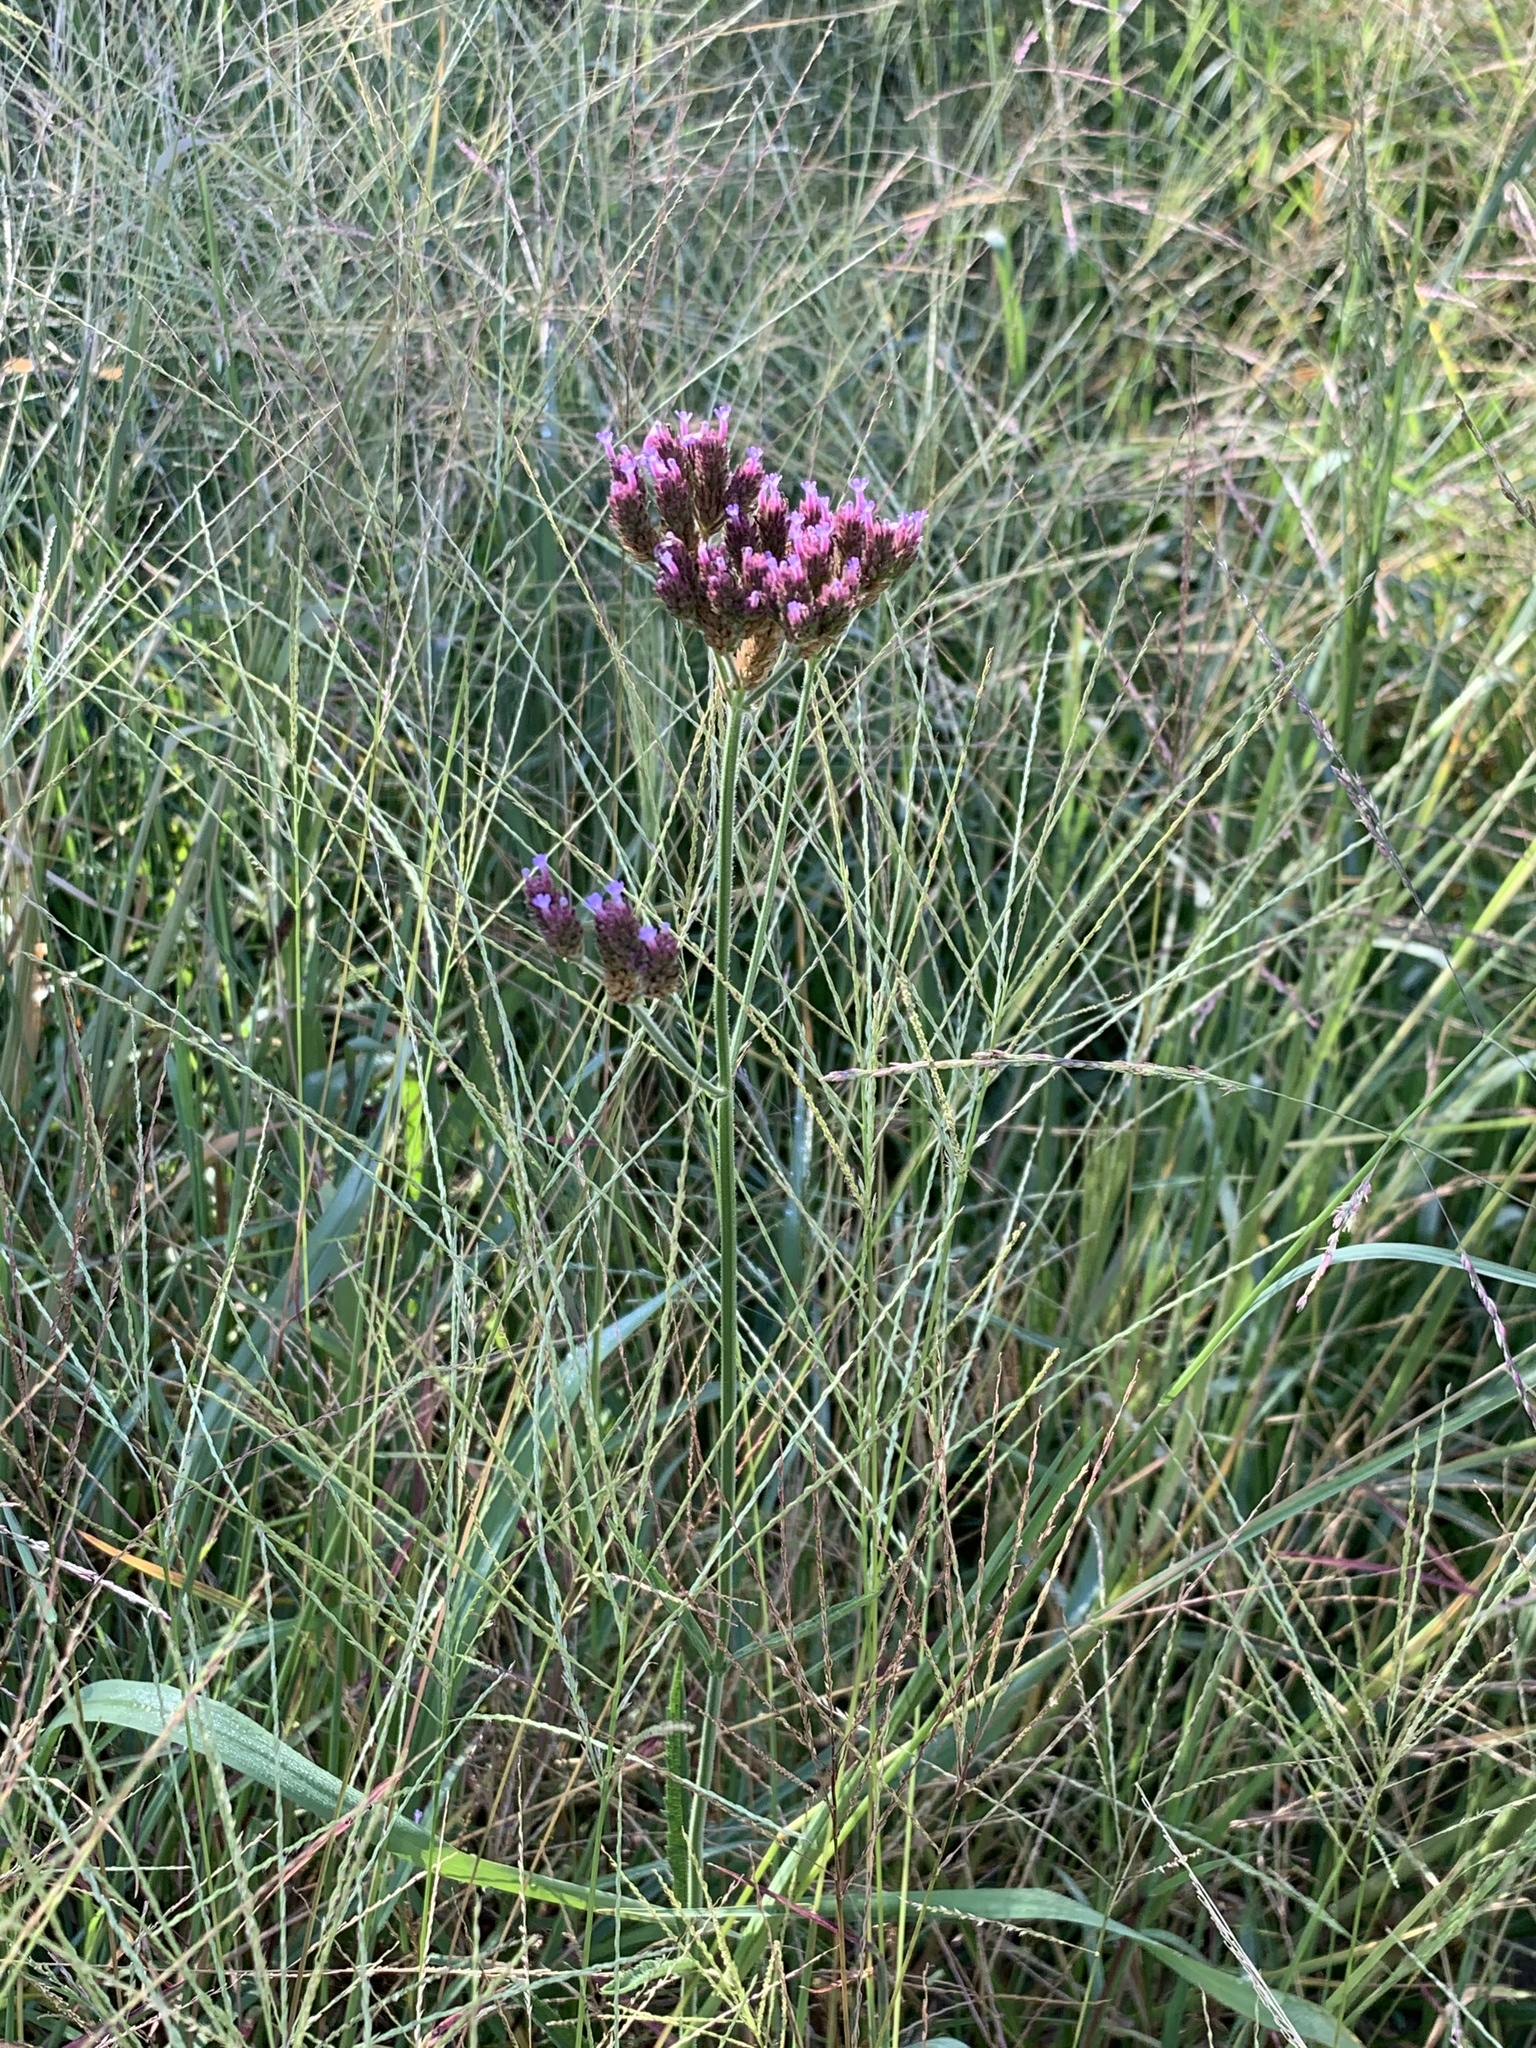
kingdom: Plantae
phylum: Tracheophyta
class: Magnoliopsida
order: Lamiales
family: Verbenaceae
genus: Verbena
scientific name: Verbena bonariensis
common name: Purpletop vervain
